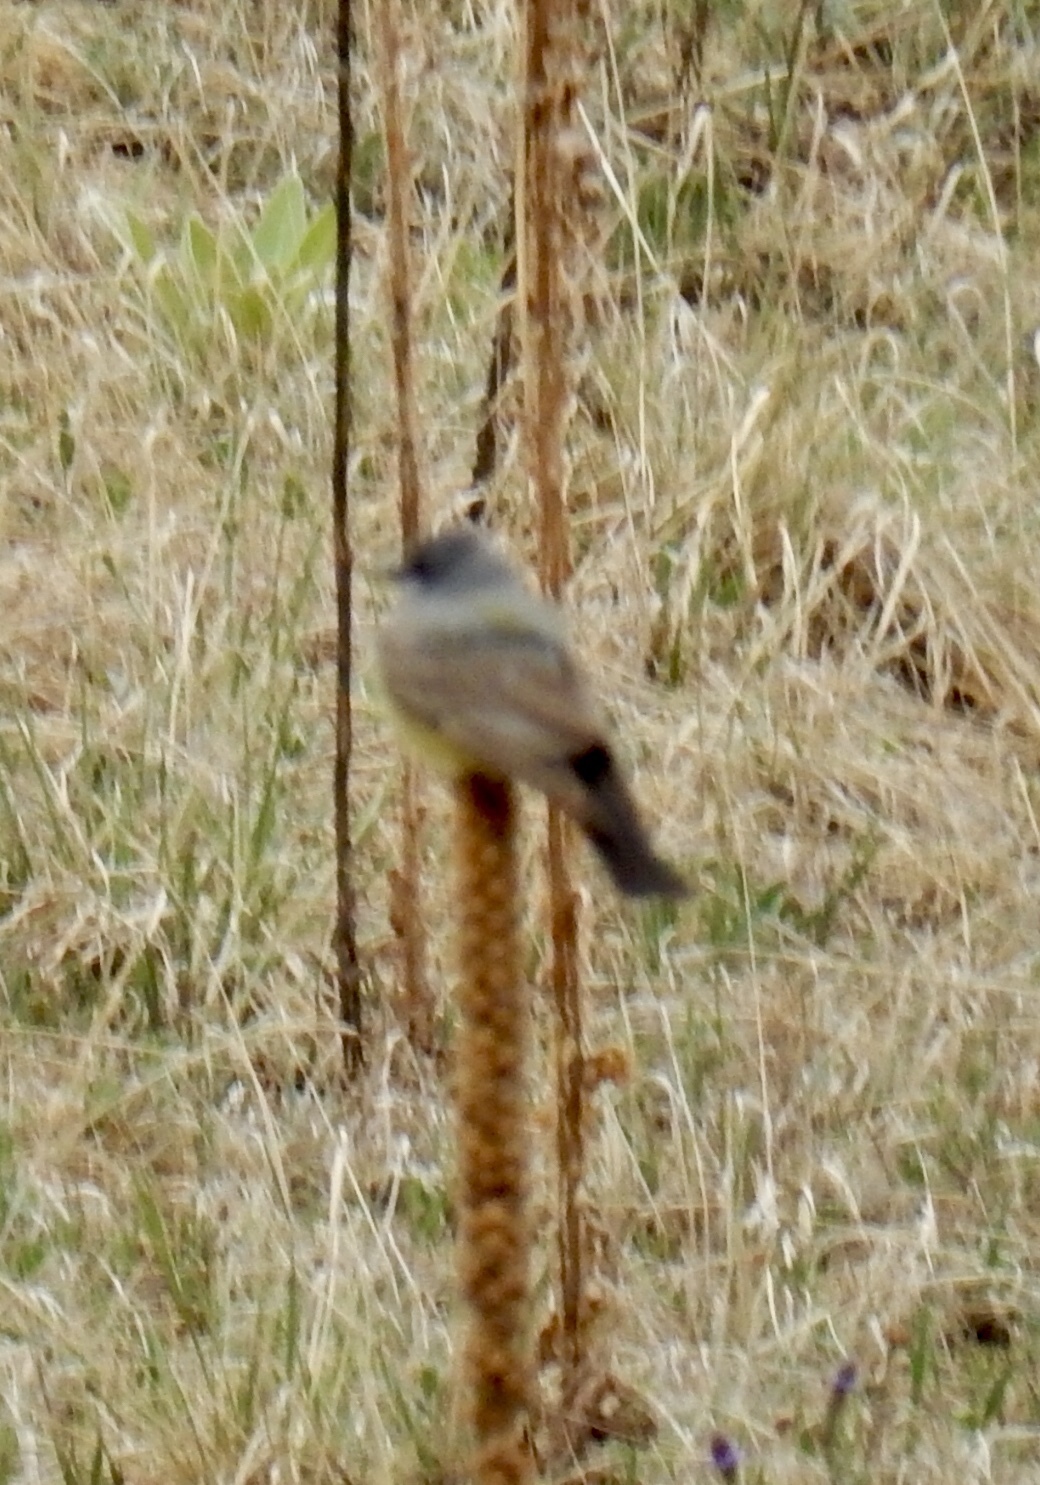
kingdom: Animalia
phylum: Chordata
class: Aves
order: Passeriformes
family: Tyrannidae
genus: Tyrannus
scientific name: Tyrannus verticalis
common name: Western kingbird
